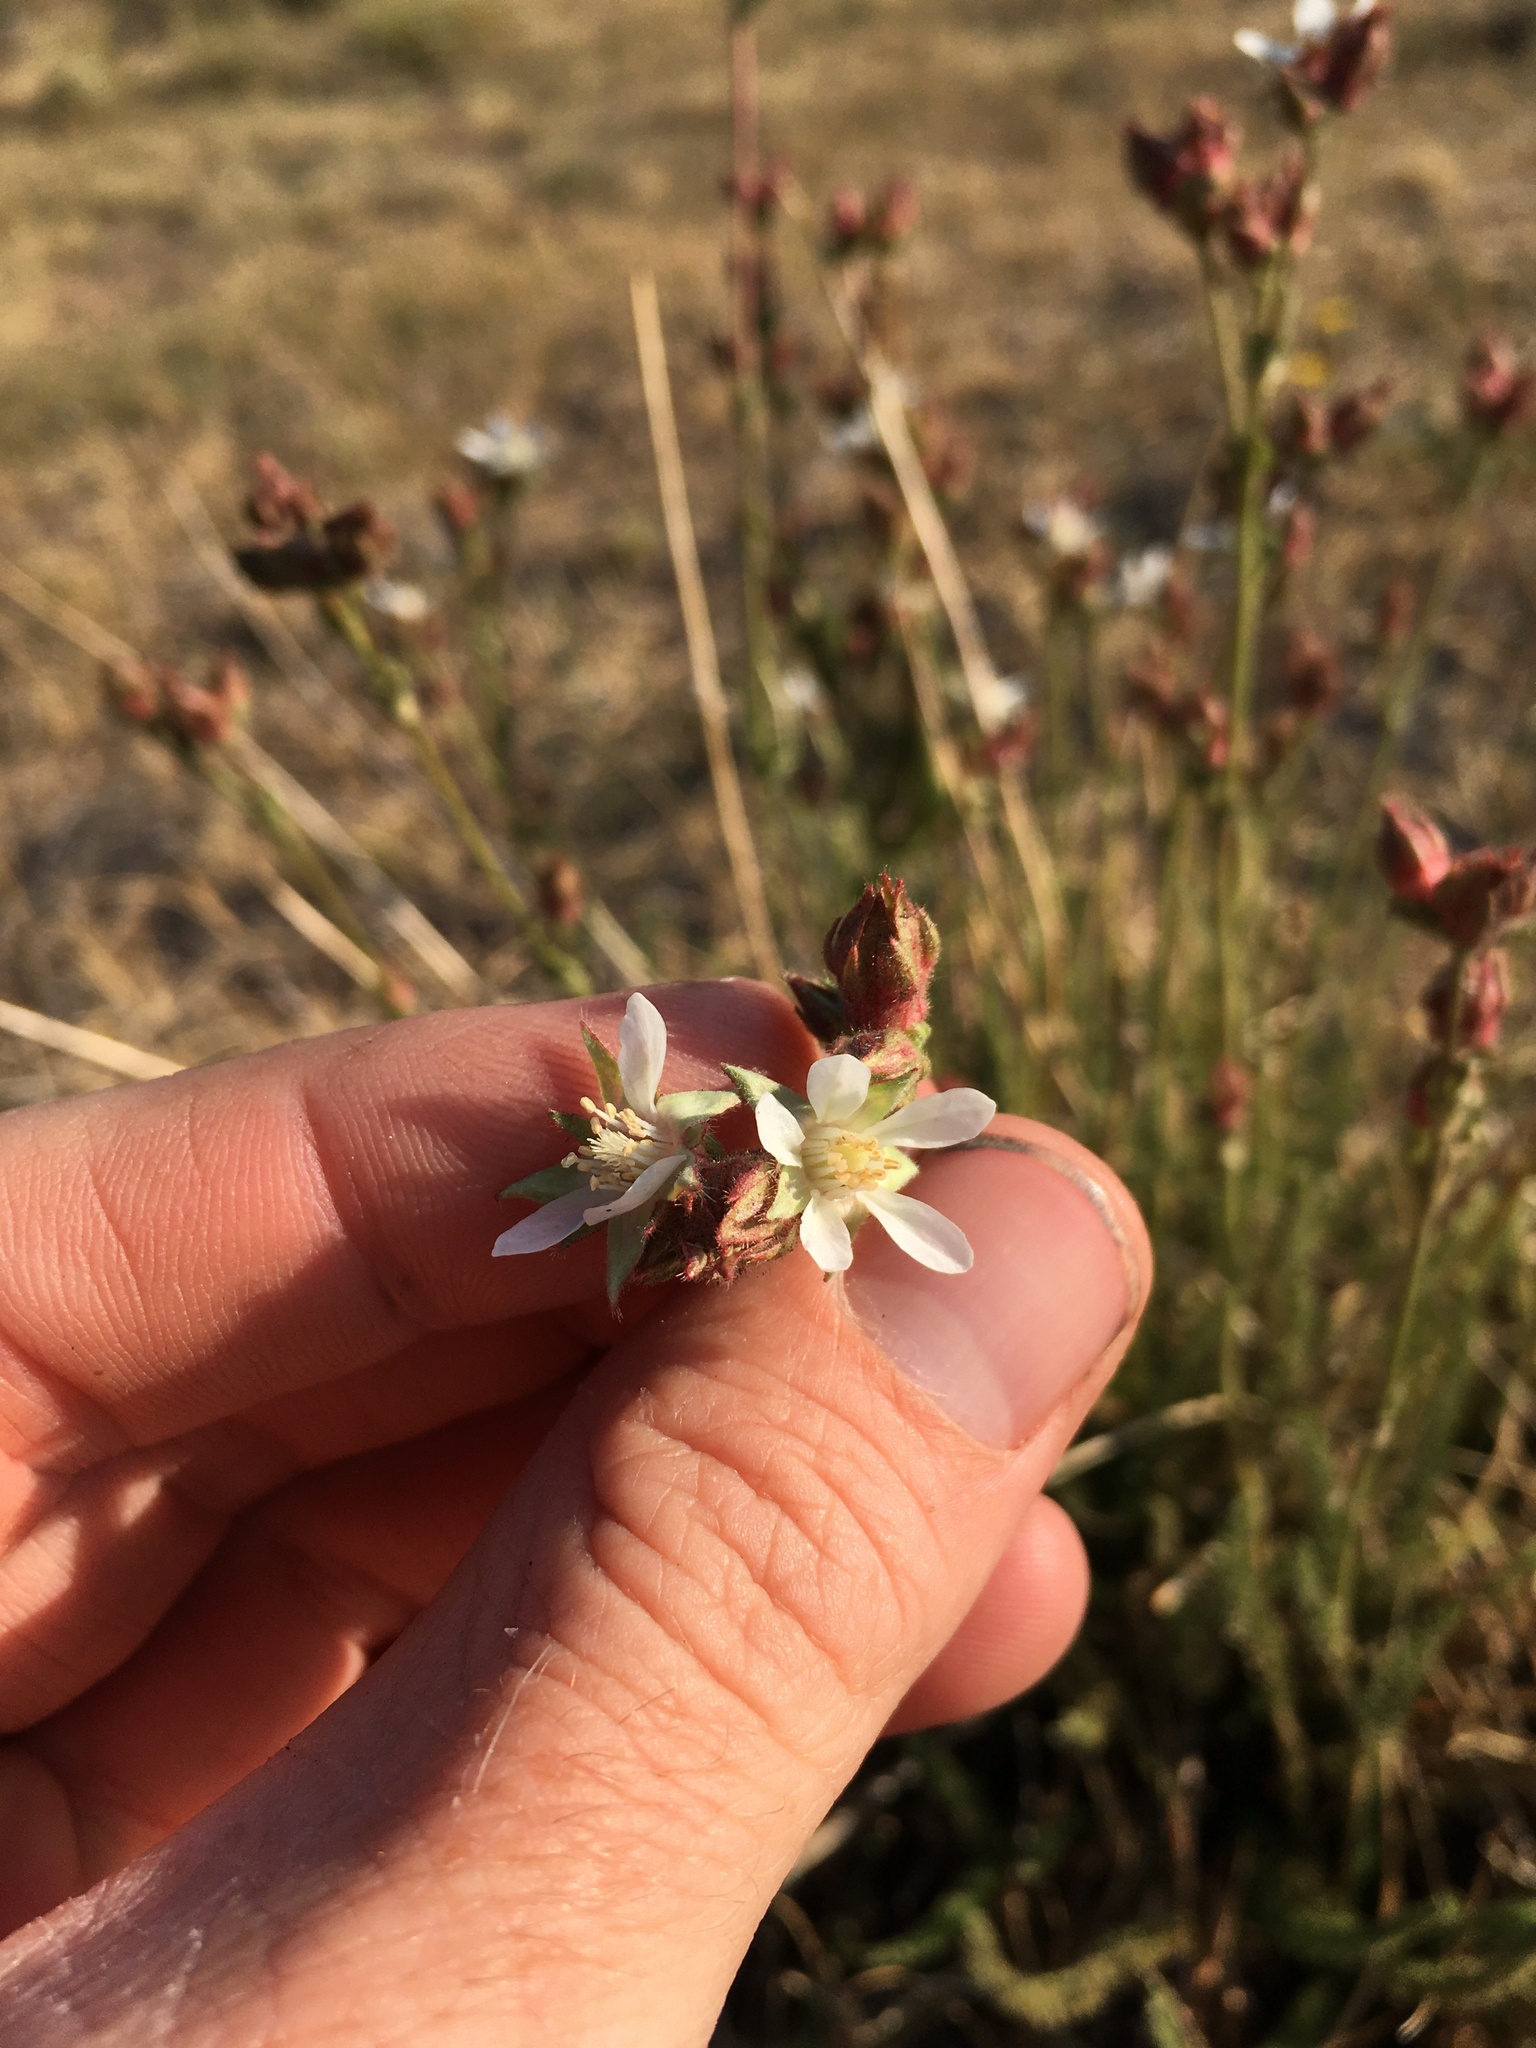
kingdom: Plantae
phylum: Tracheophyta
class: Magnoliopsida
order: Rosales
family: Rosaceae
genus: Potentilla
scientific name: Potentilla congdonis
